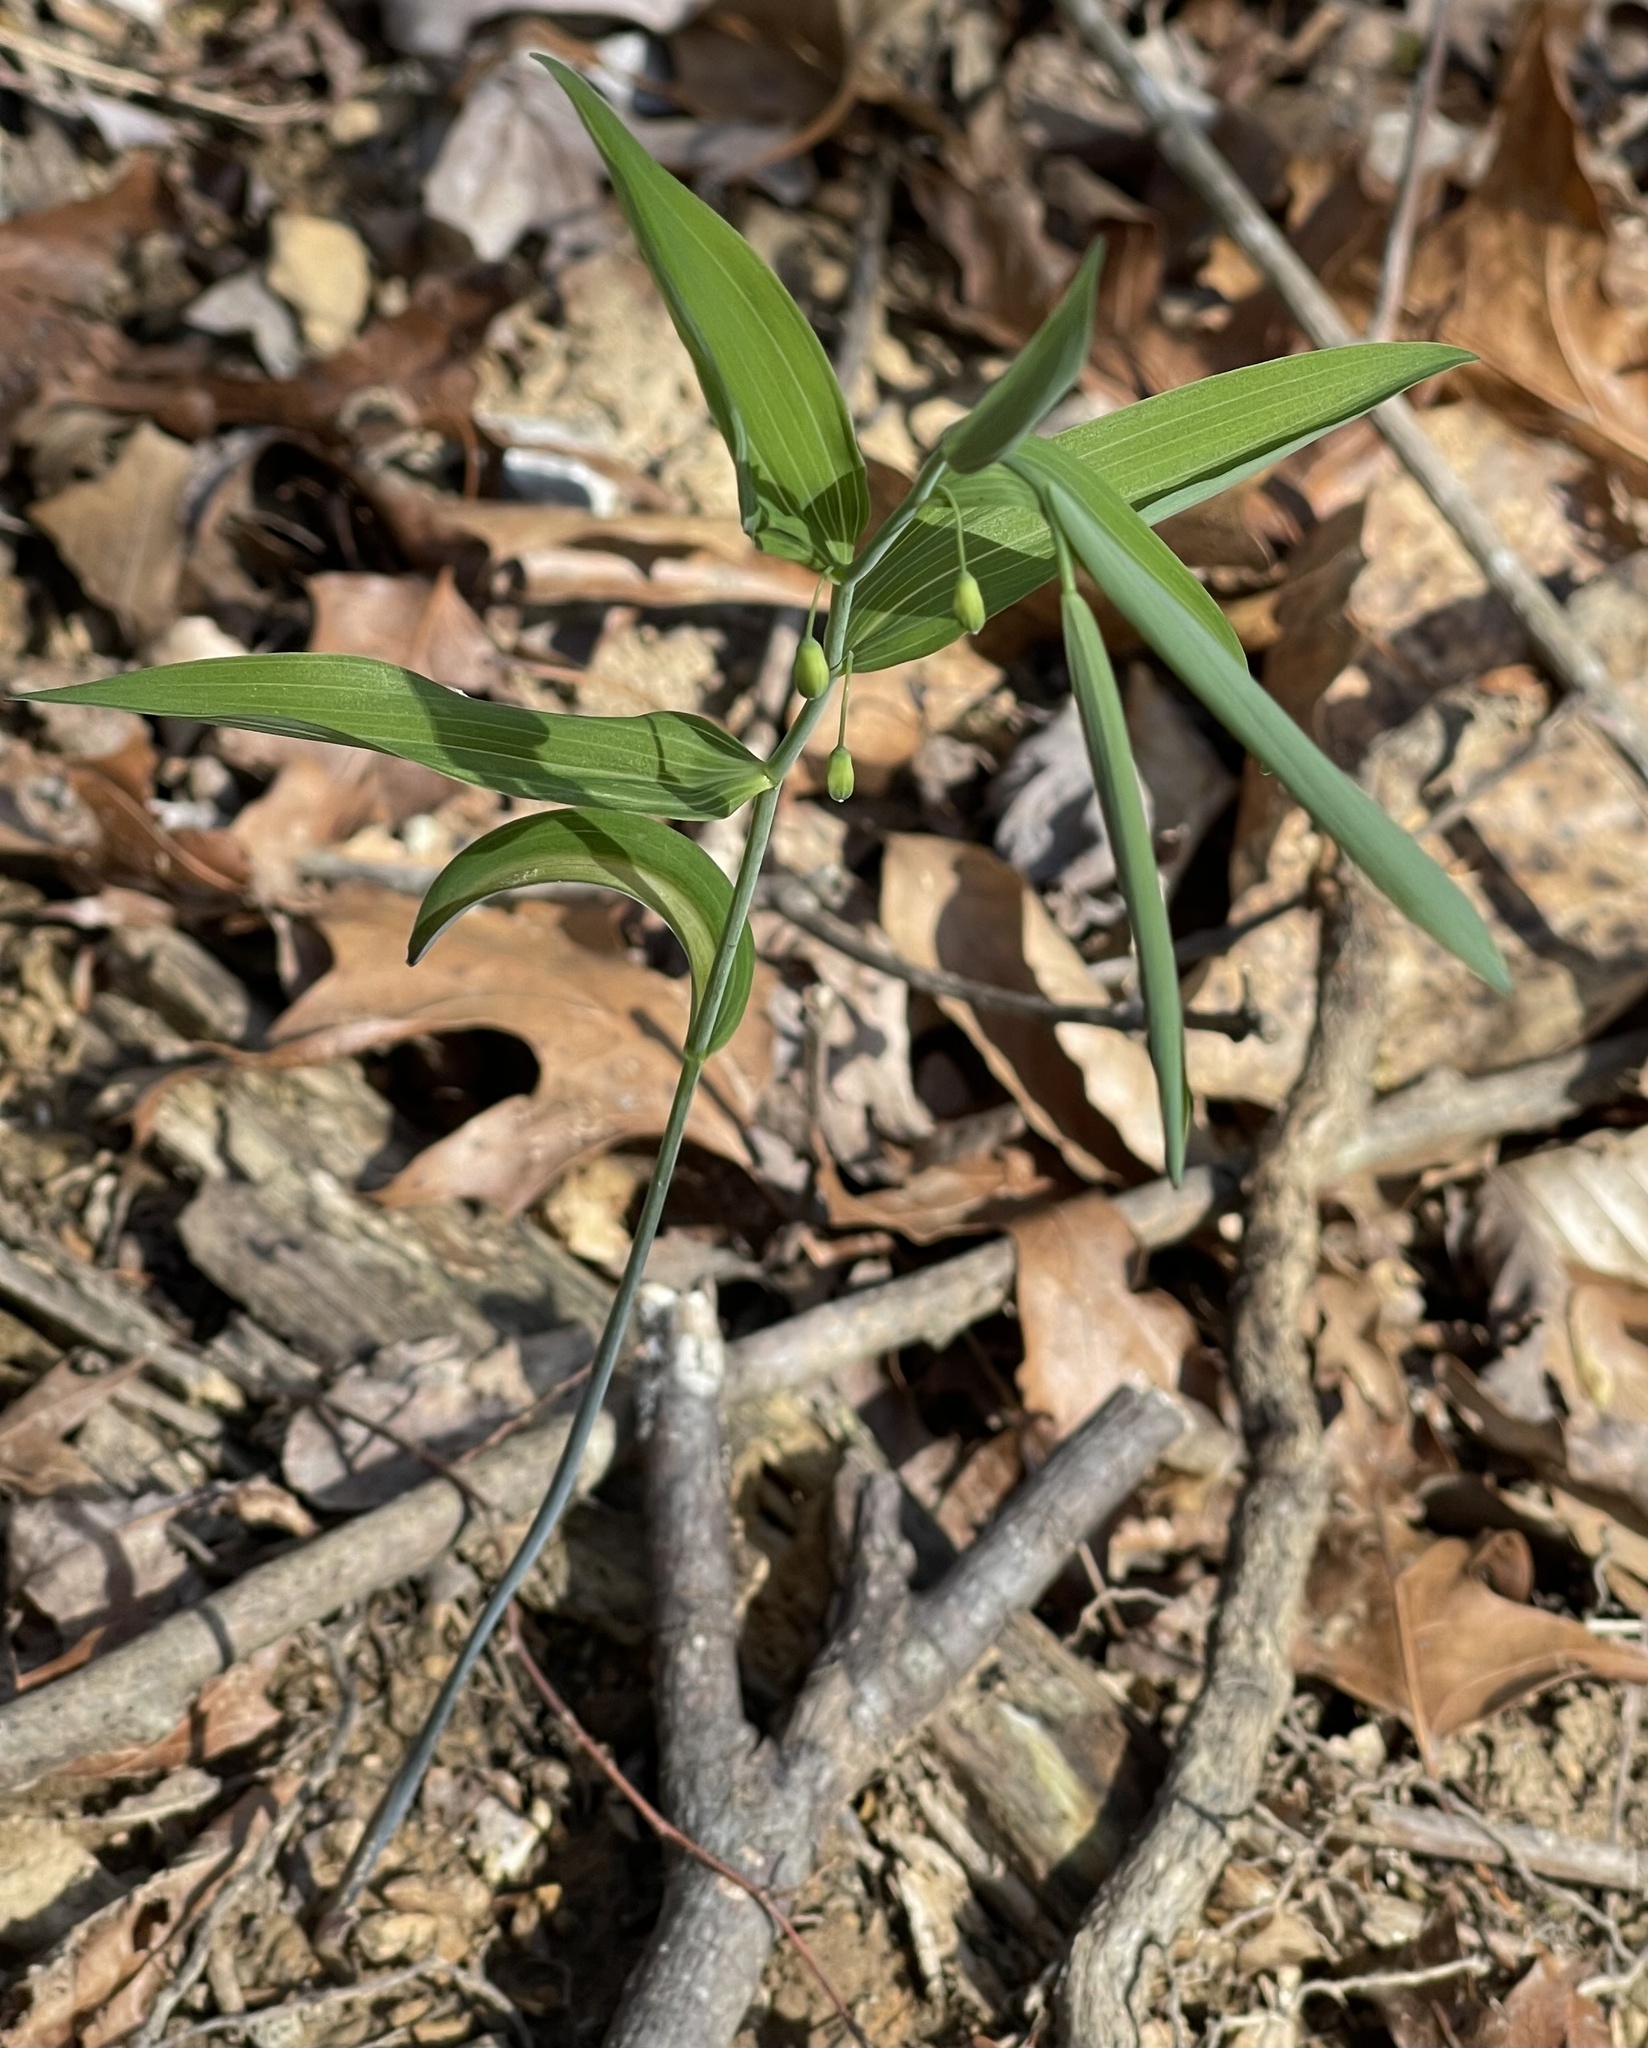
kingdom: Plantae
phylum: Tracheophyta
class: Liliopsida
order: Asparagales
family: Asparagaceae
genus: Polygonatum
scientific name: Polygonatum biflorum
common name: American solomon's-seal
